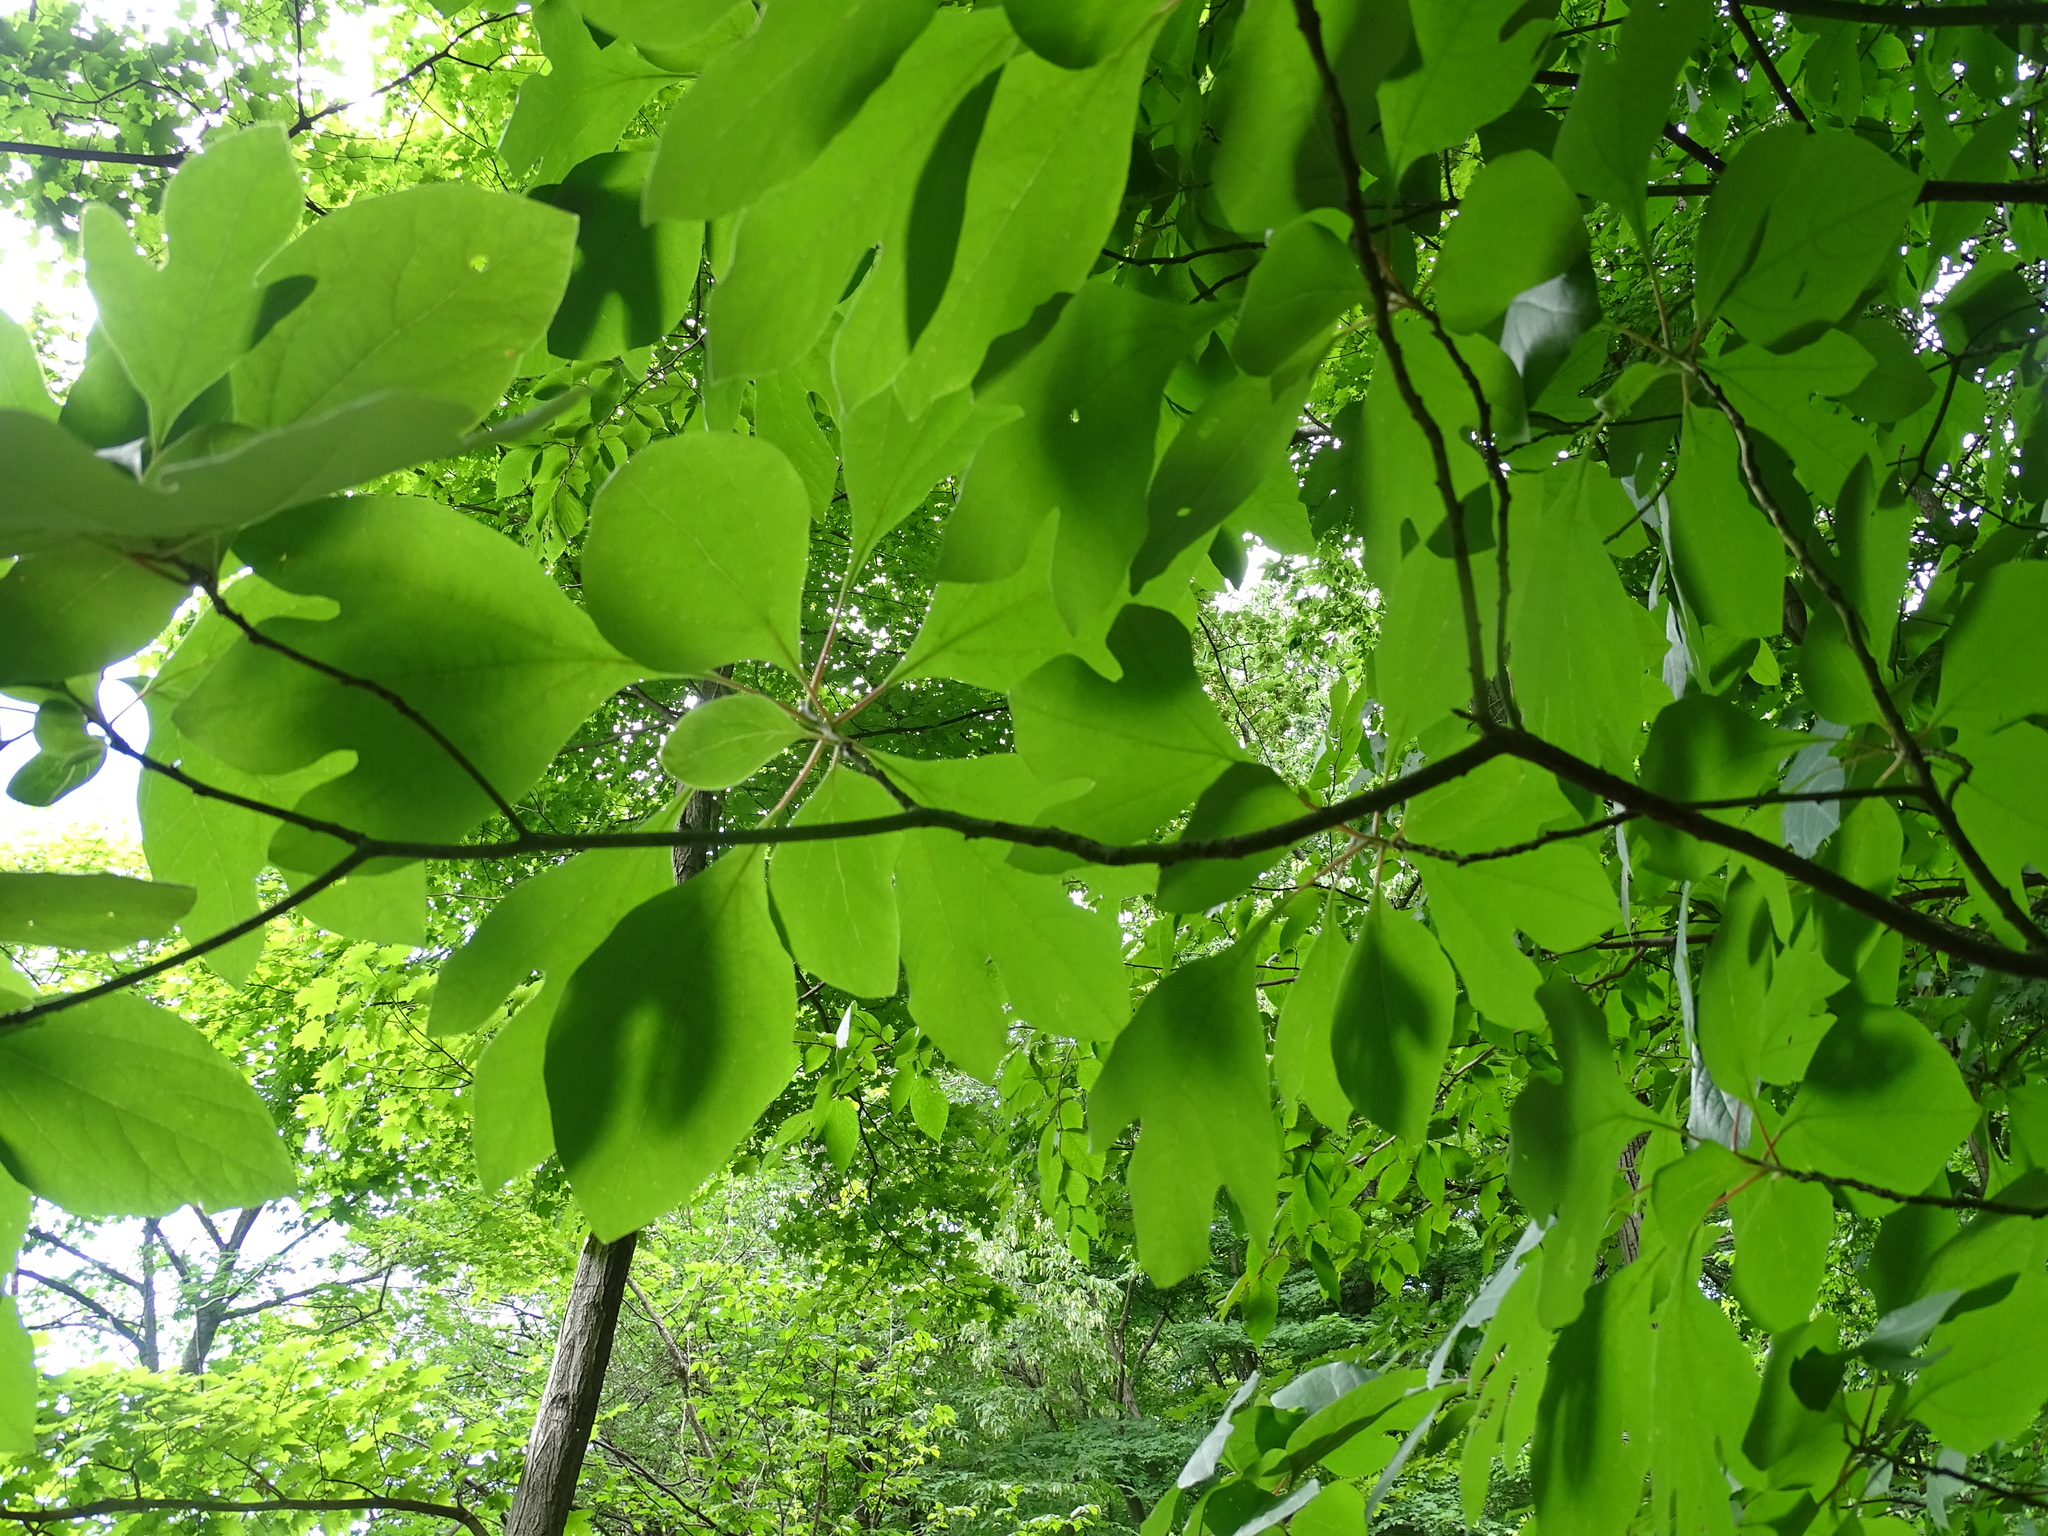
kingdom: Plantae
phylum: Tracheophyta
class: Magnoliopsida
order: Laurales
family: Lauraceae
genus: Sassafras
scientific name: Sassafras albidum
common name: Sassafras
